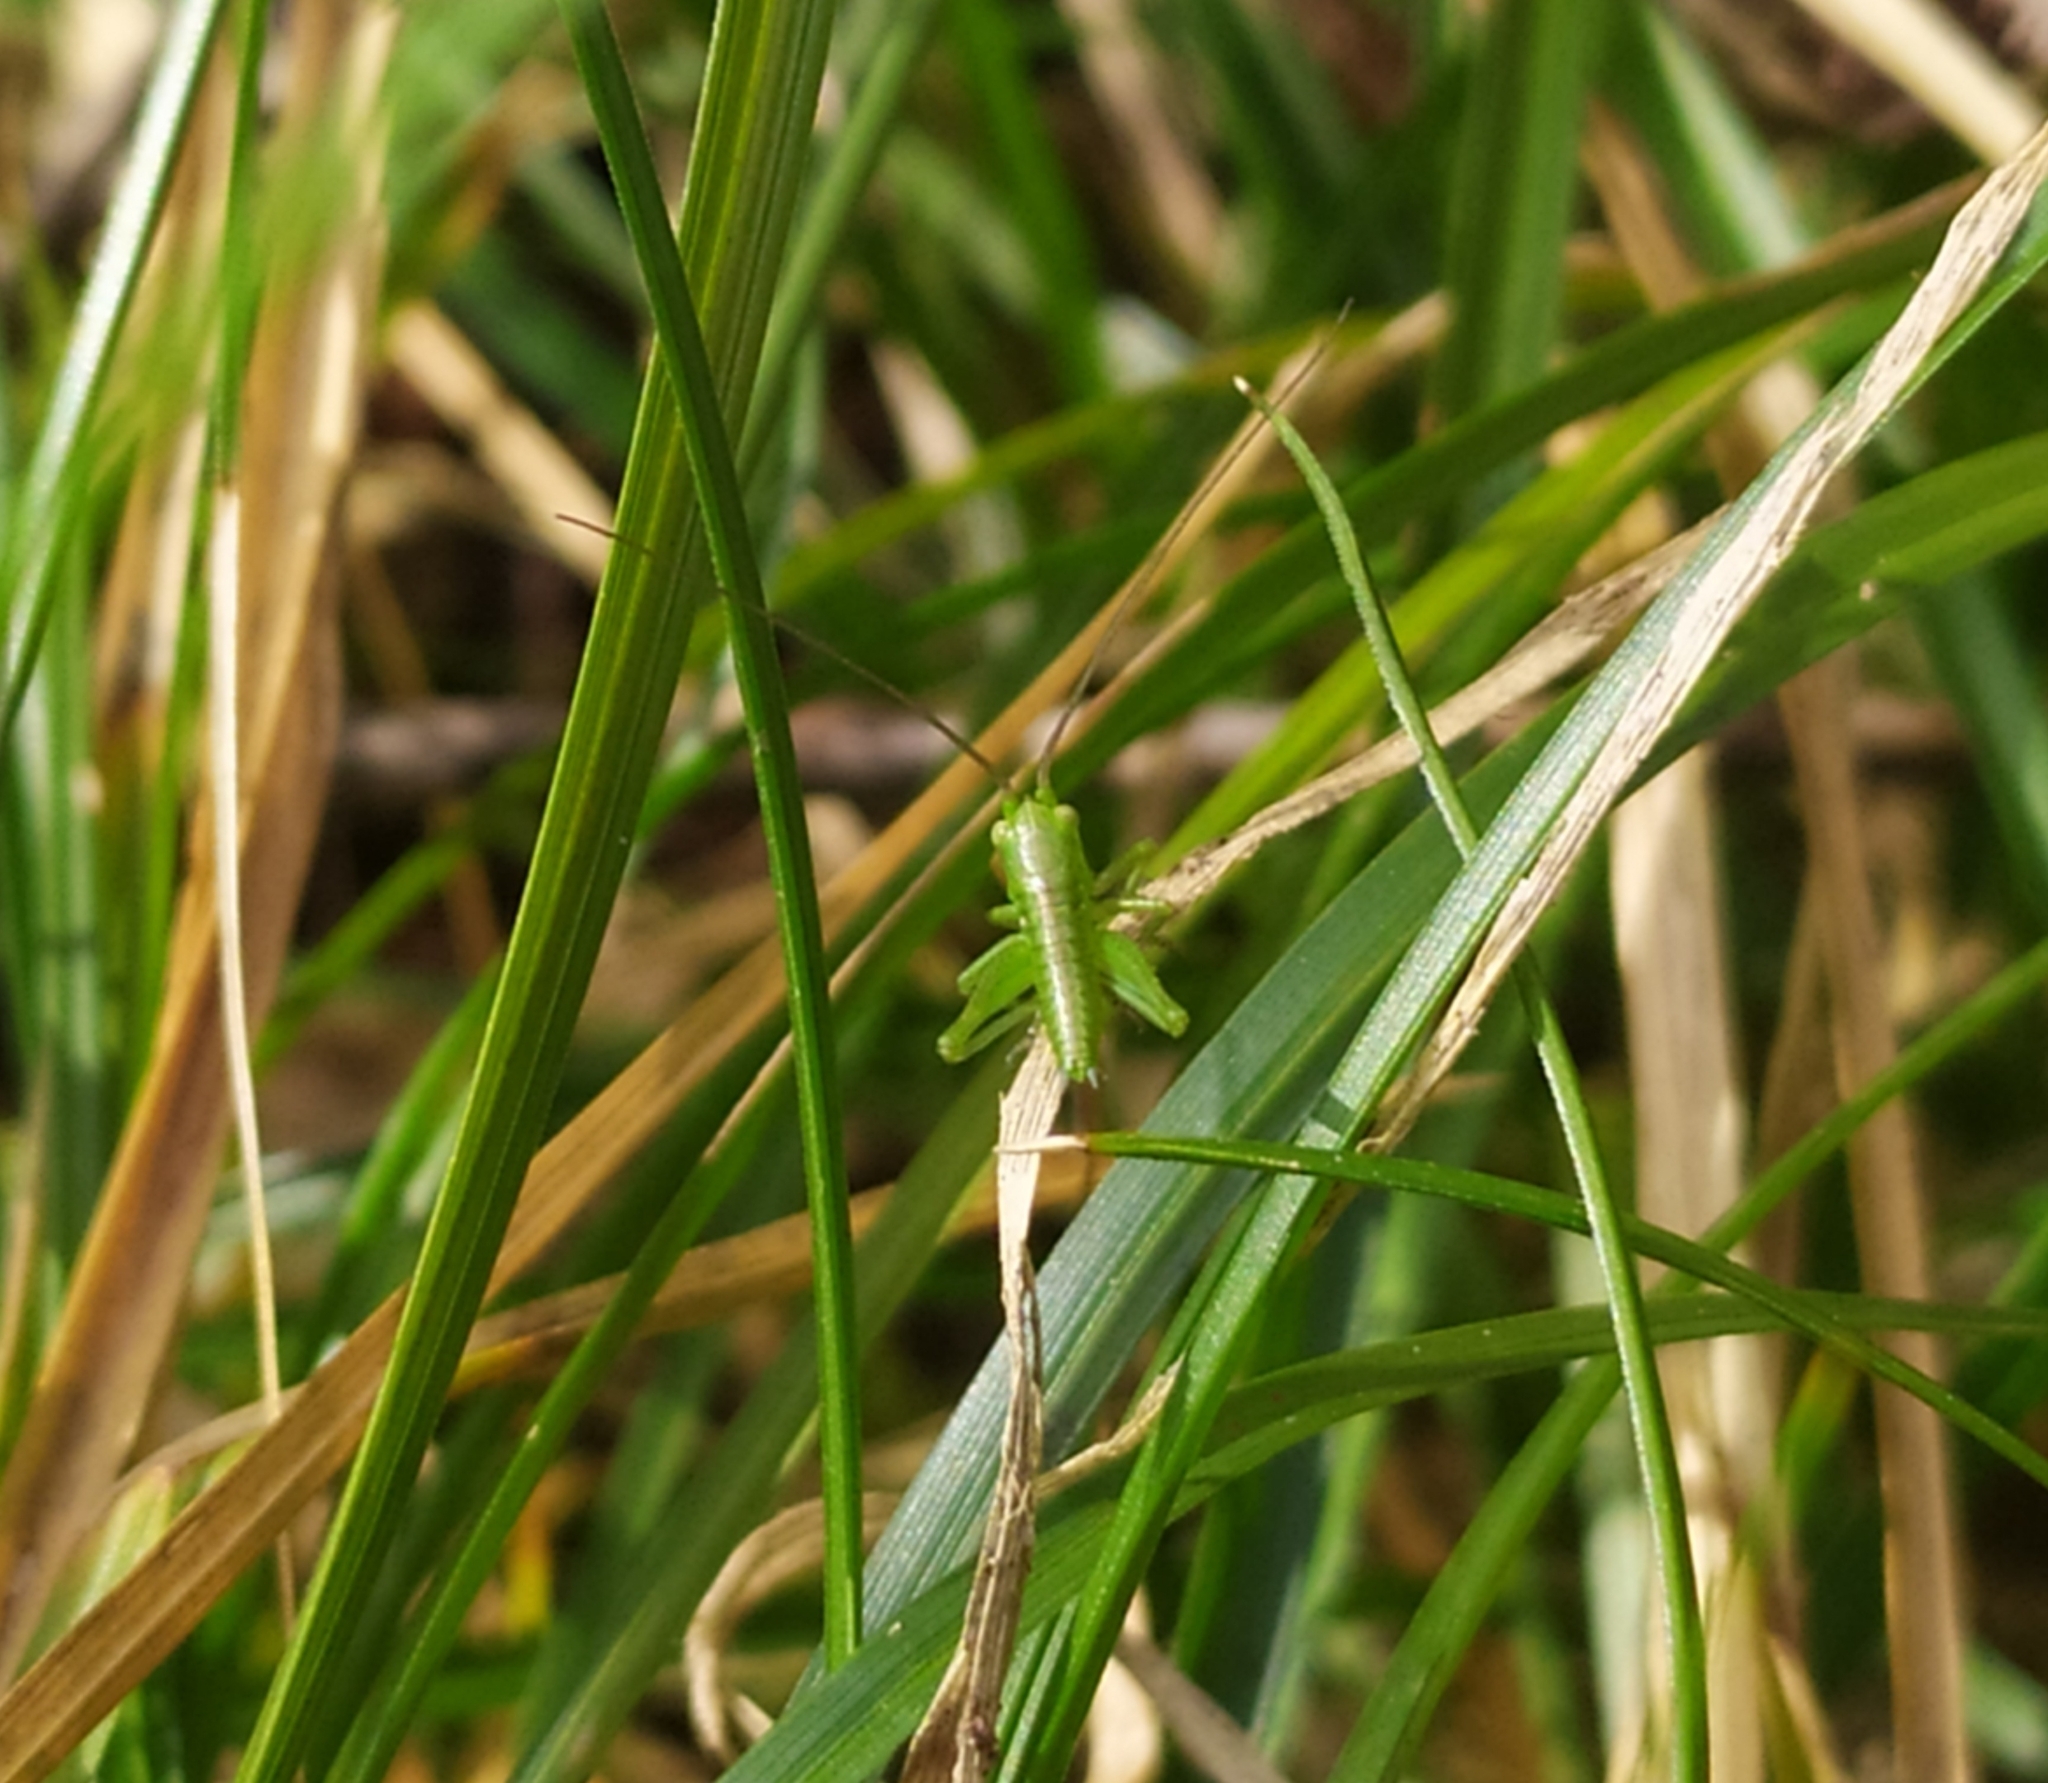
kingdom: Animalia
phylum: Arthropoda
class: Insecta
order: Orthoptera
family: Tettigoniidae
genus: Tettigonia
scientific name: Tettigonia viridissima
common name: Great green bush-cricket
